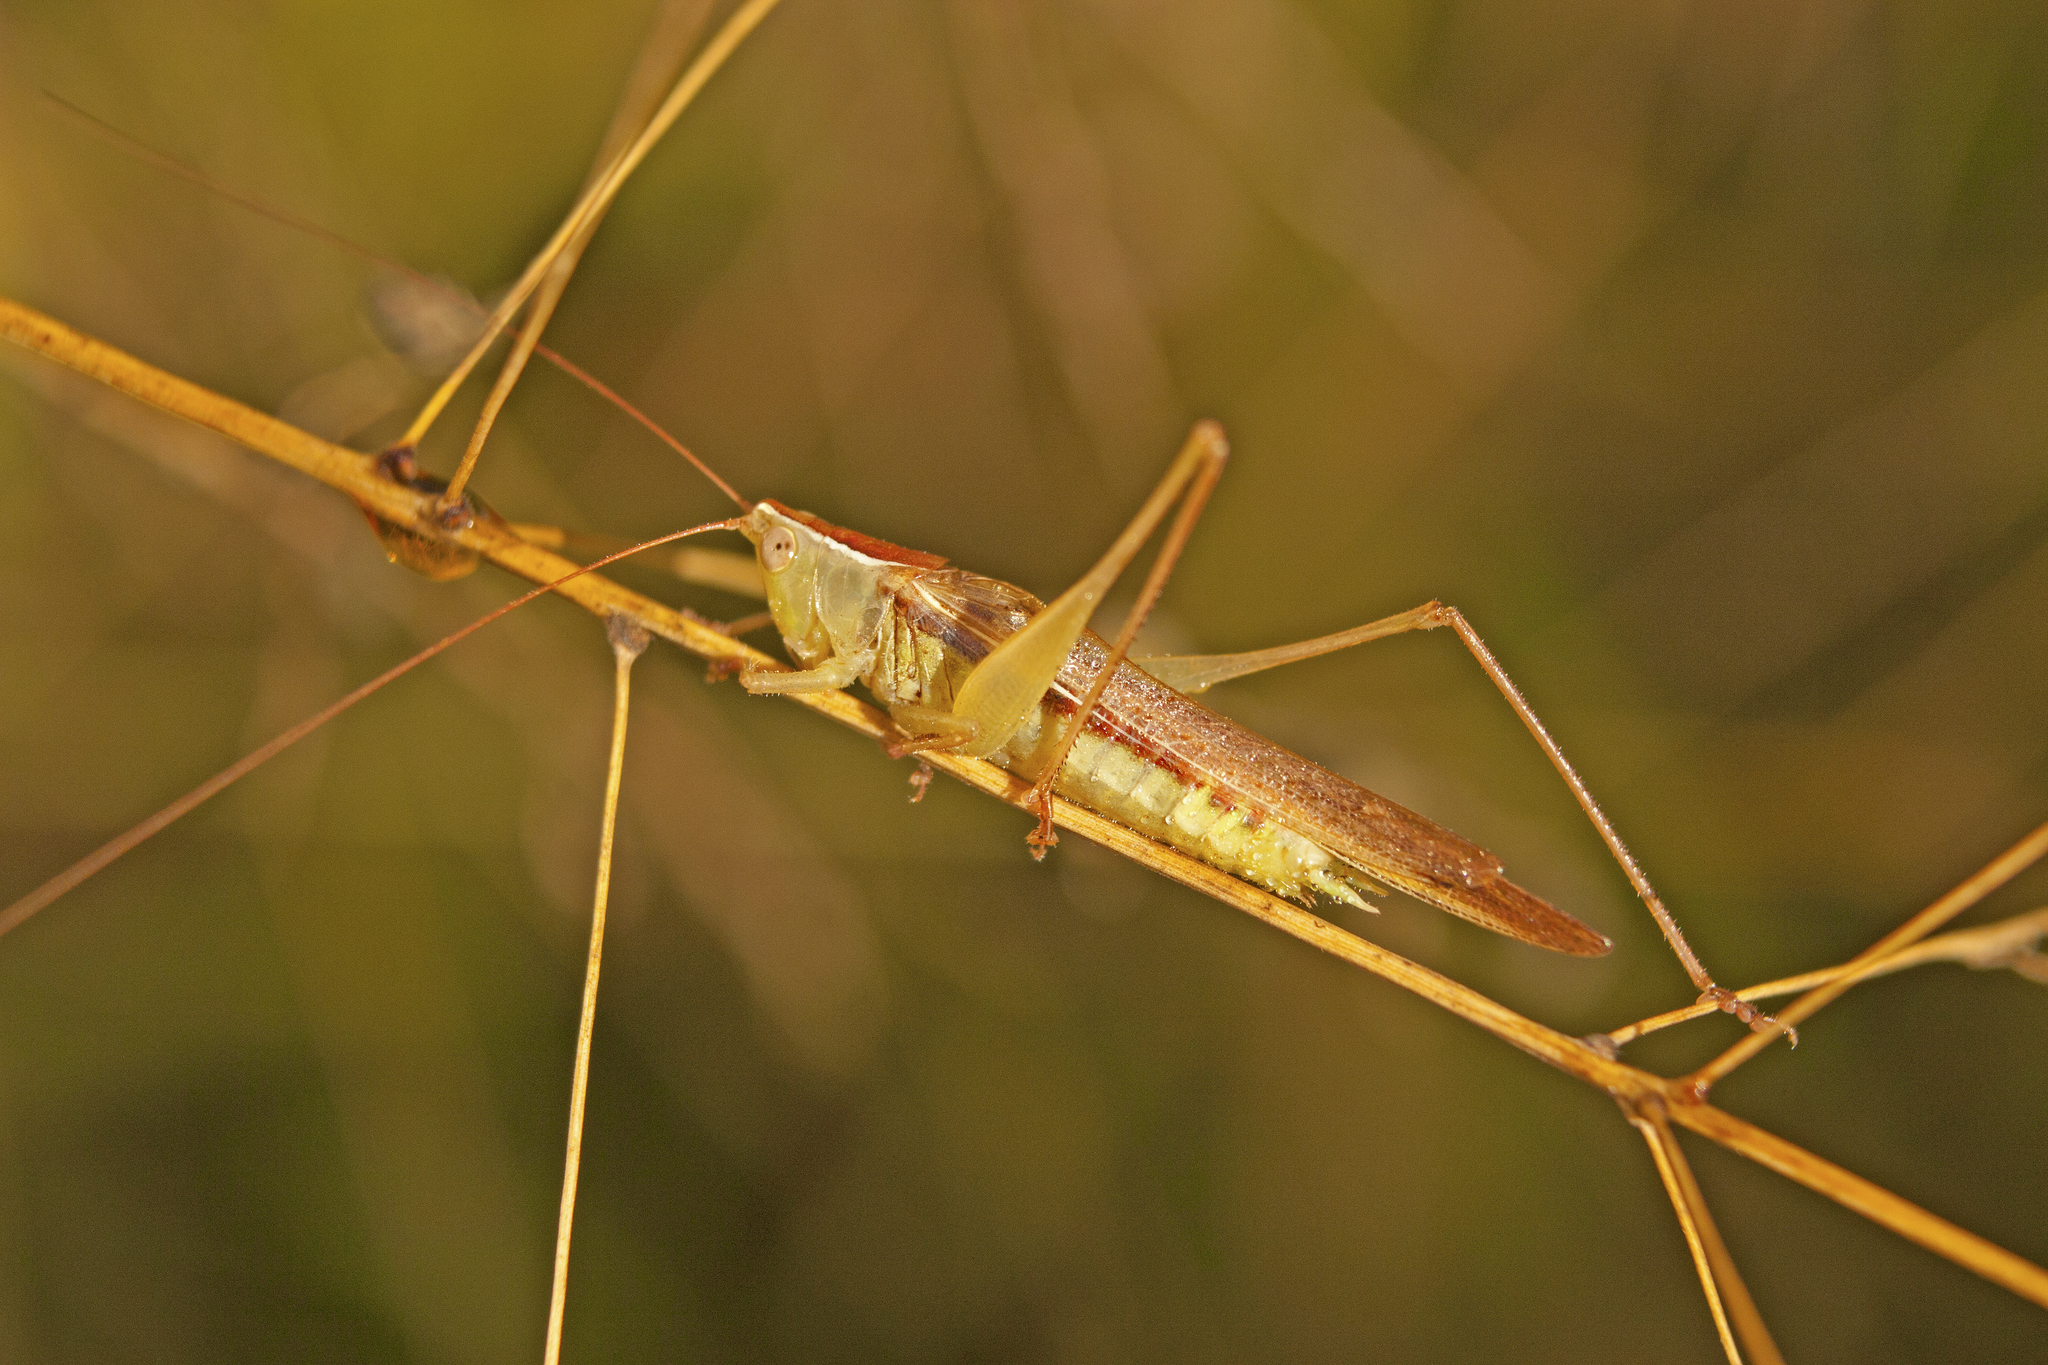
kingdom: Animalia
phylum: Arthropoda
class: Insecta
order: Orthoptera
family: Tettigoniidae
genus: Conocephalus
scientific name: Conocephalus upoluensis
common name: Upolu meadow katydid
